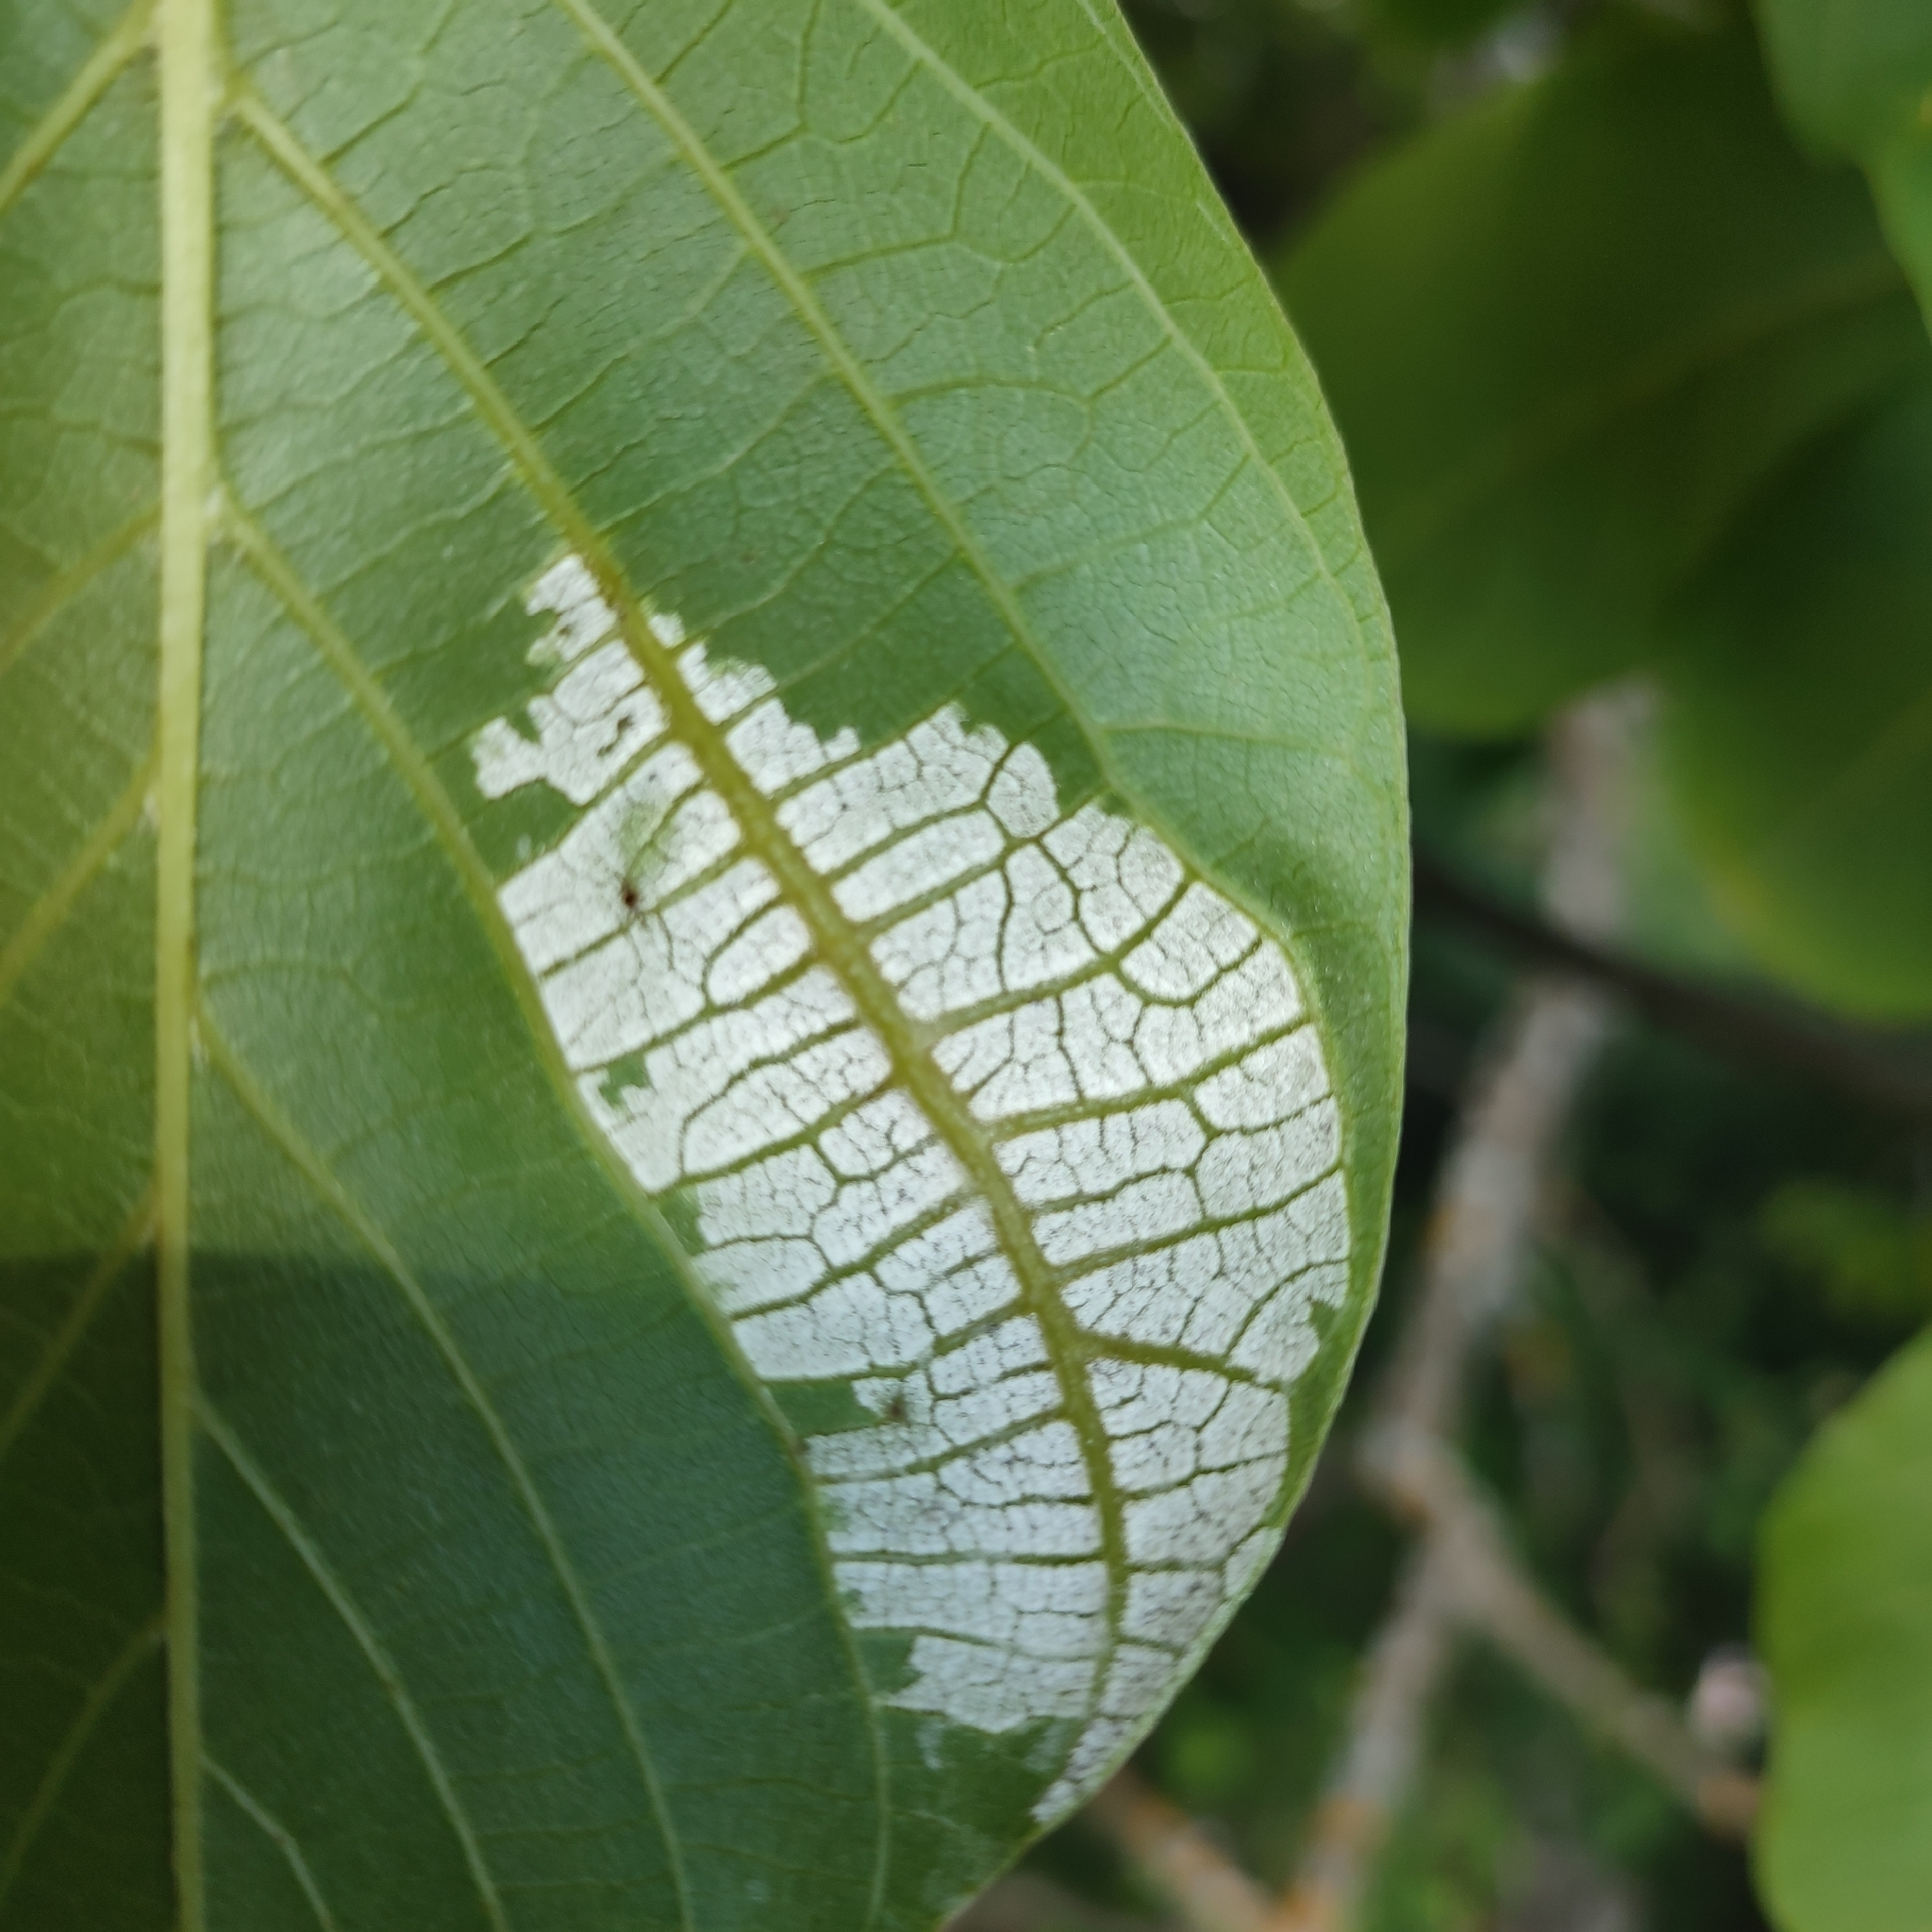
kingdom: Animalia
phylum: Arthropoda
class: Arachnida
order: Trombidiformes
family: Eriophyidae
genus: Aceria
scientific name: Aceria erinea
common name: Persian walnut erineum mite
